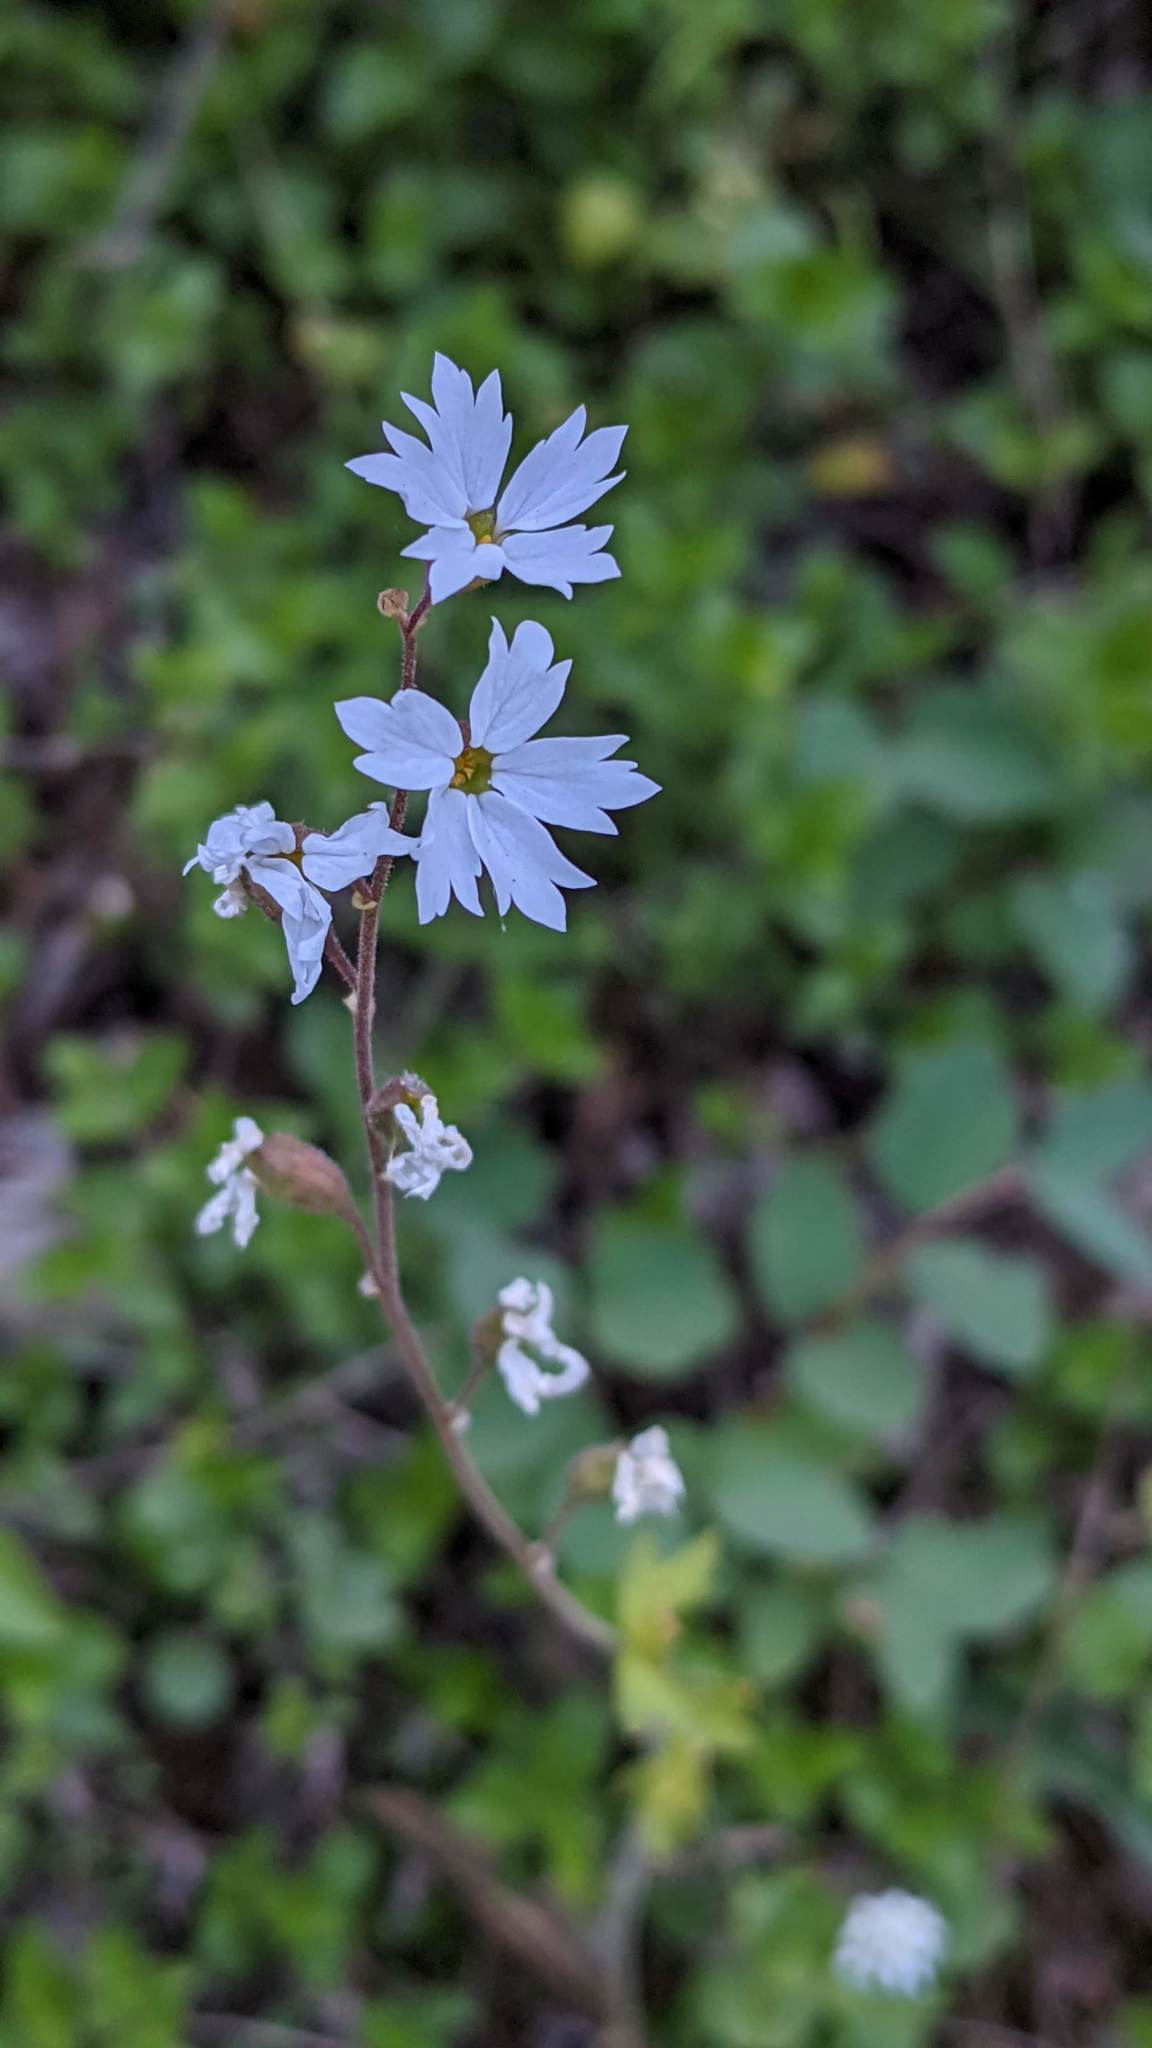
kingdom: Plantae
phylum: Tracheophyta
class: Magnoliopsida
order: Saxifragales
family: Saxifragaceae
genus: Lithophragma
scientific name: Lithophragma affine
